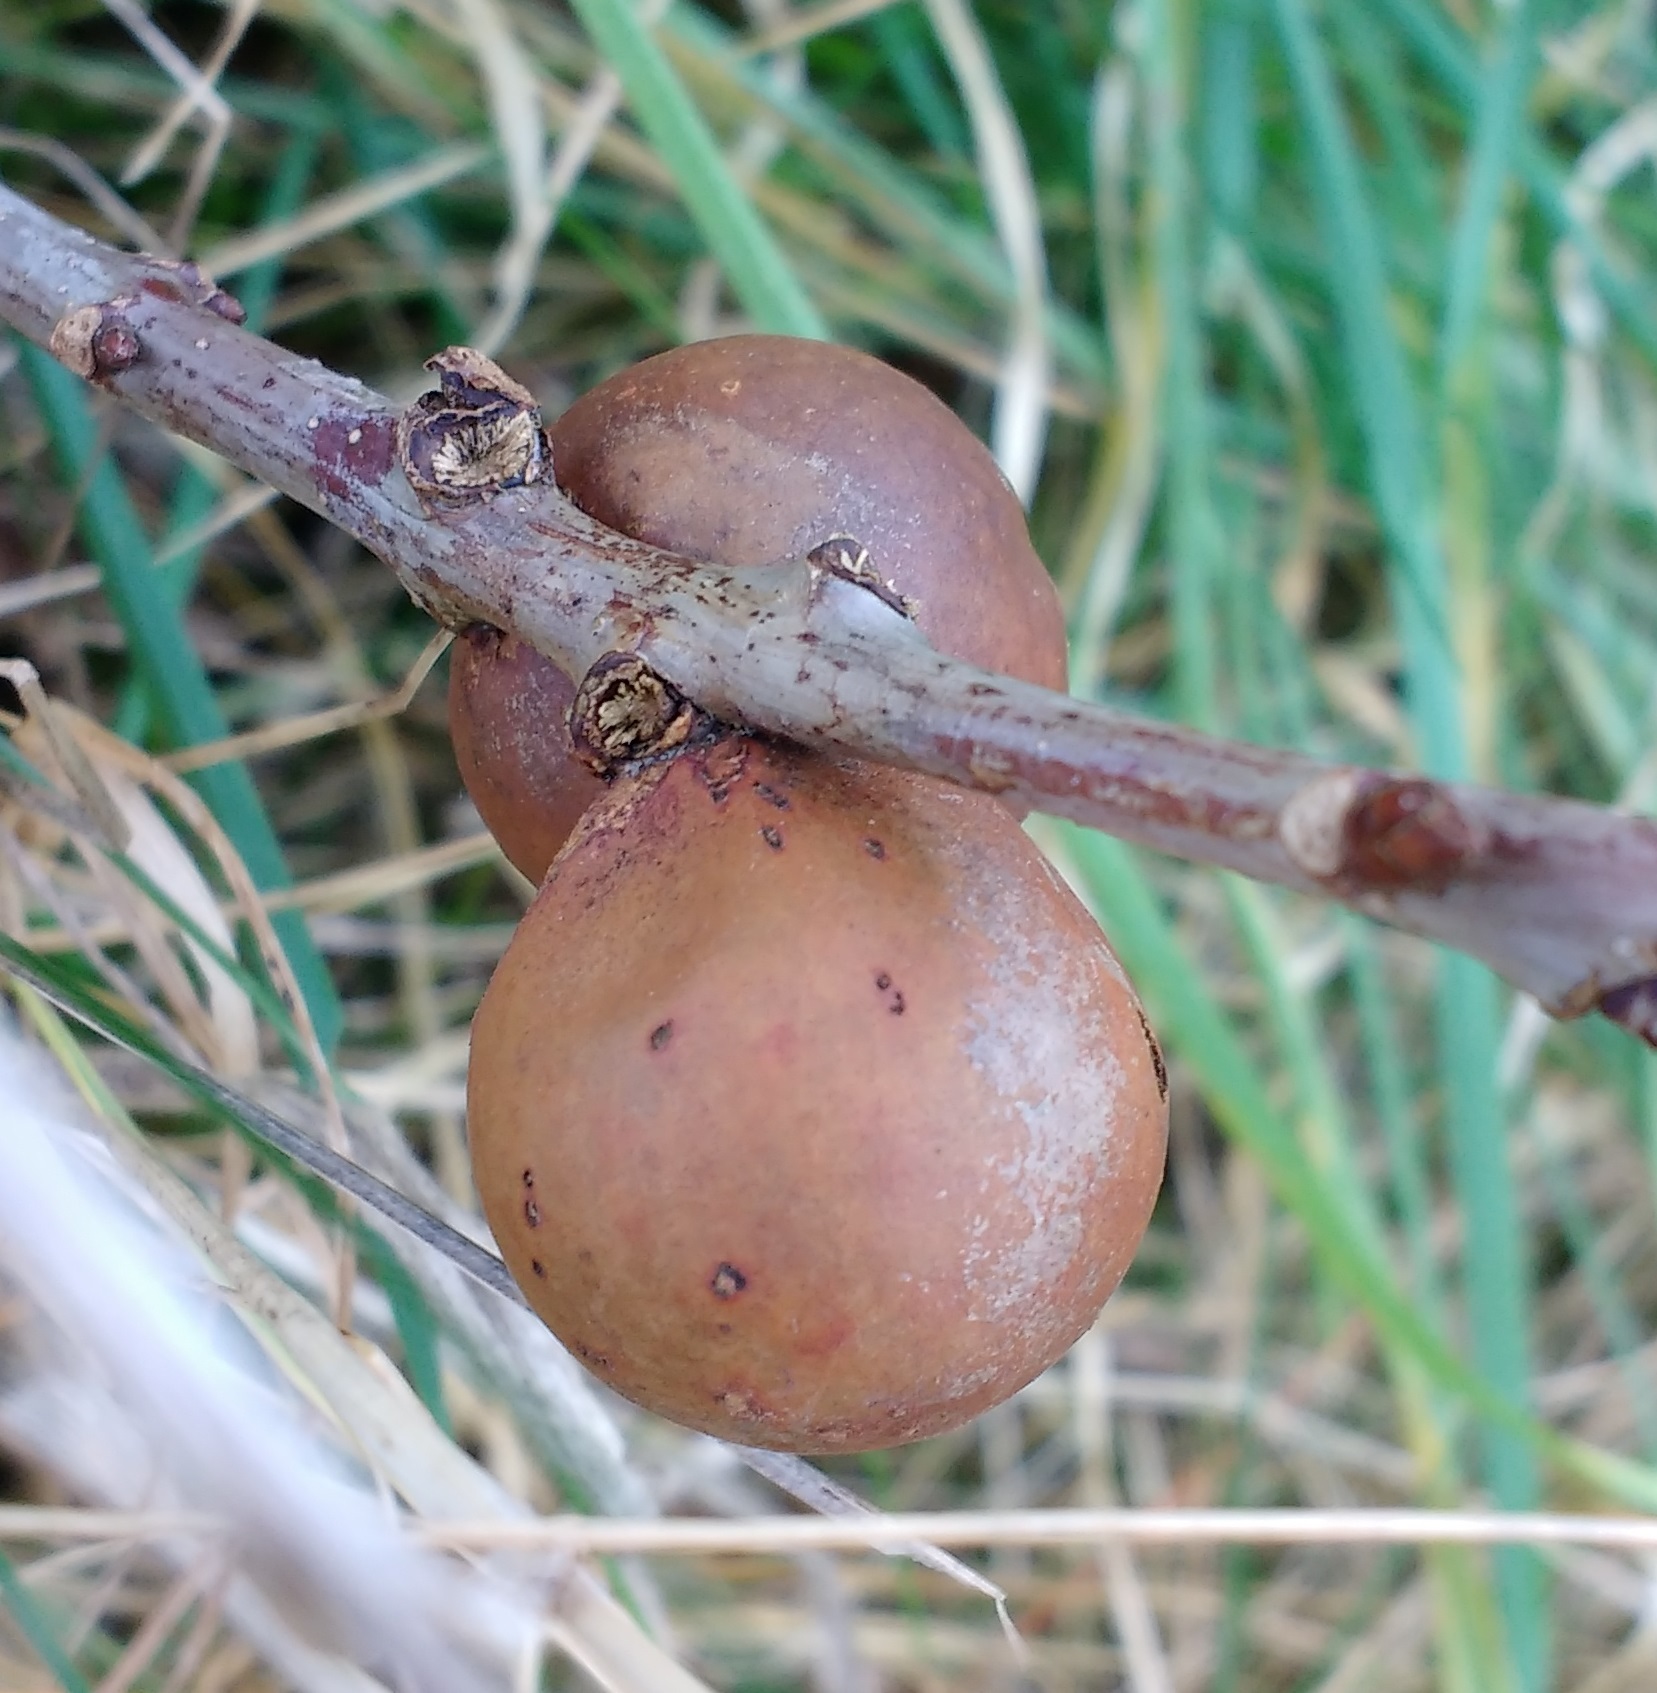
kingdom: Animalia
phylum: Arthropoda
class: Insecta
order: Hymenoptera
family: Cynipidae
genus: Andricus
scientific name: Andricus kollari
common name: Marble gall
